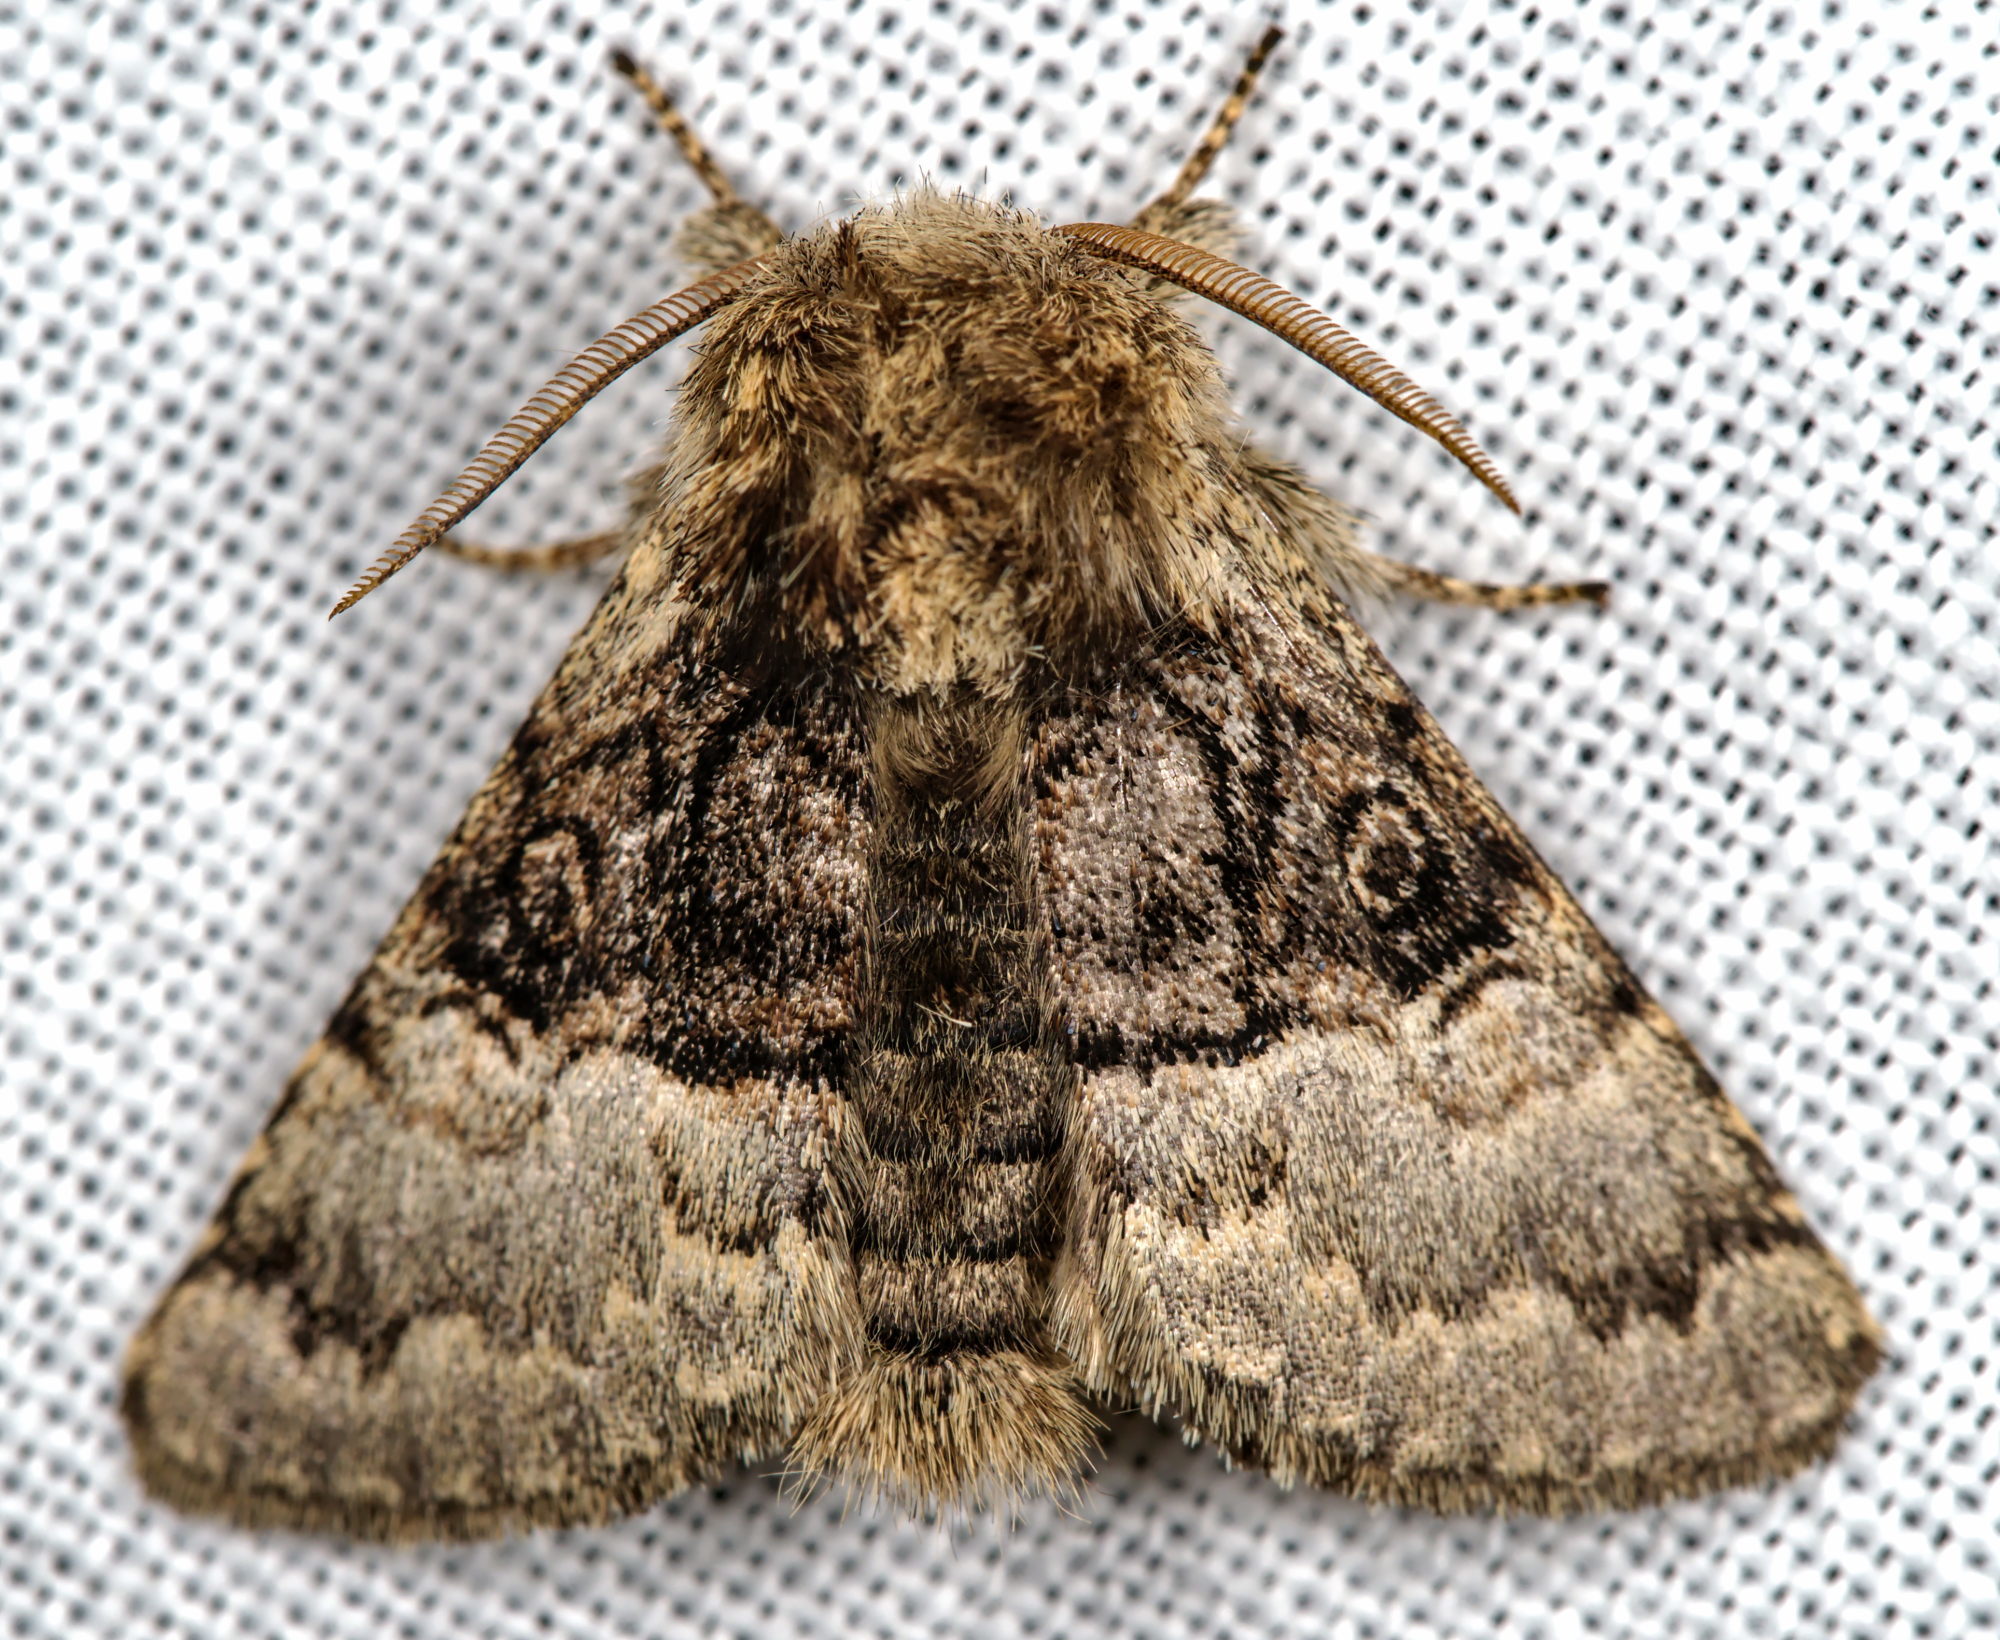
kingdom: Animalia
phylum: Arthropoda
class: Insecta
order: Lepidoptera
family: Noctuidae
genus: Colocasia
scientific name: Colocasia coryli
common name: Nut-tree tussock
